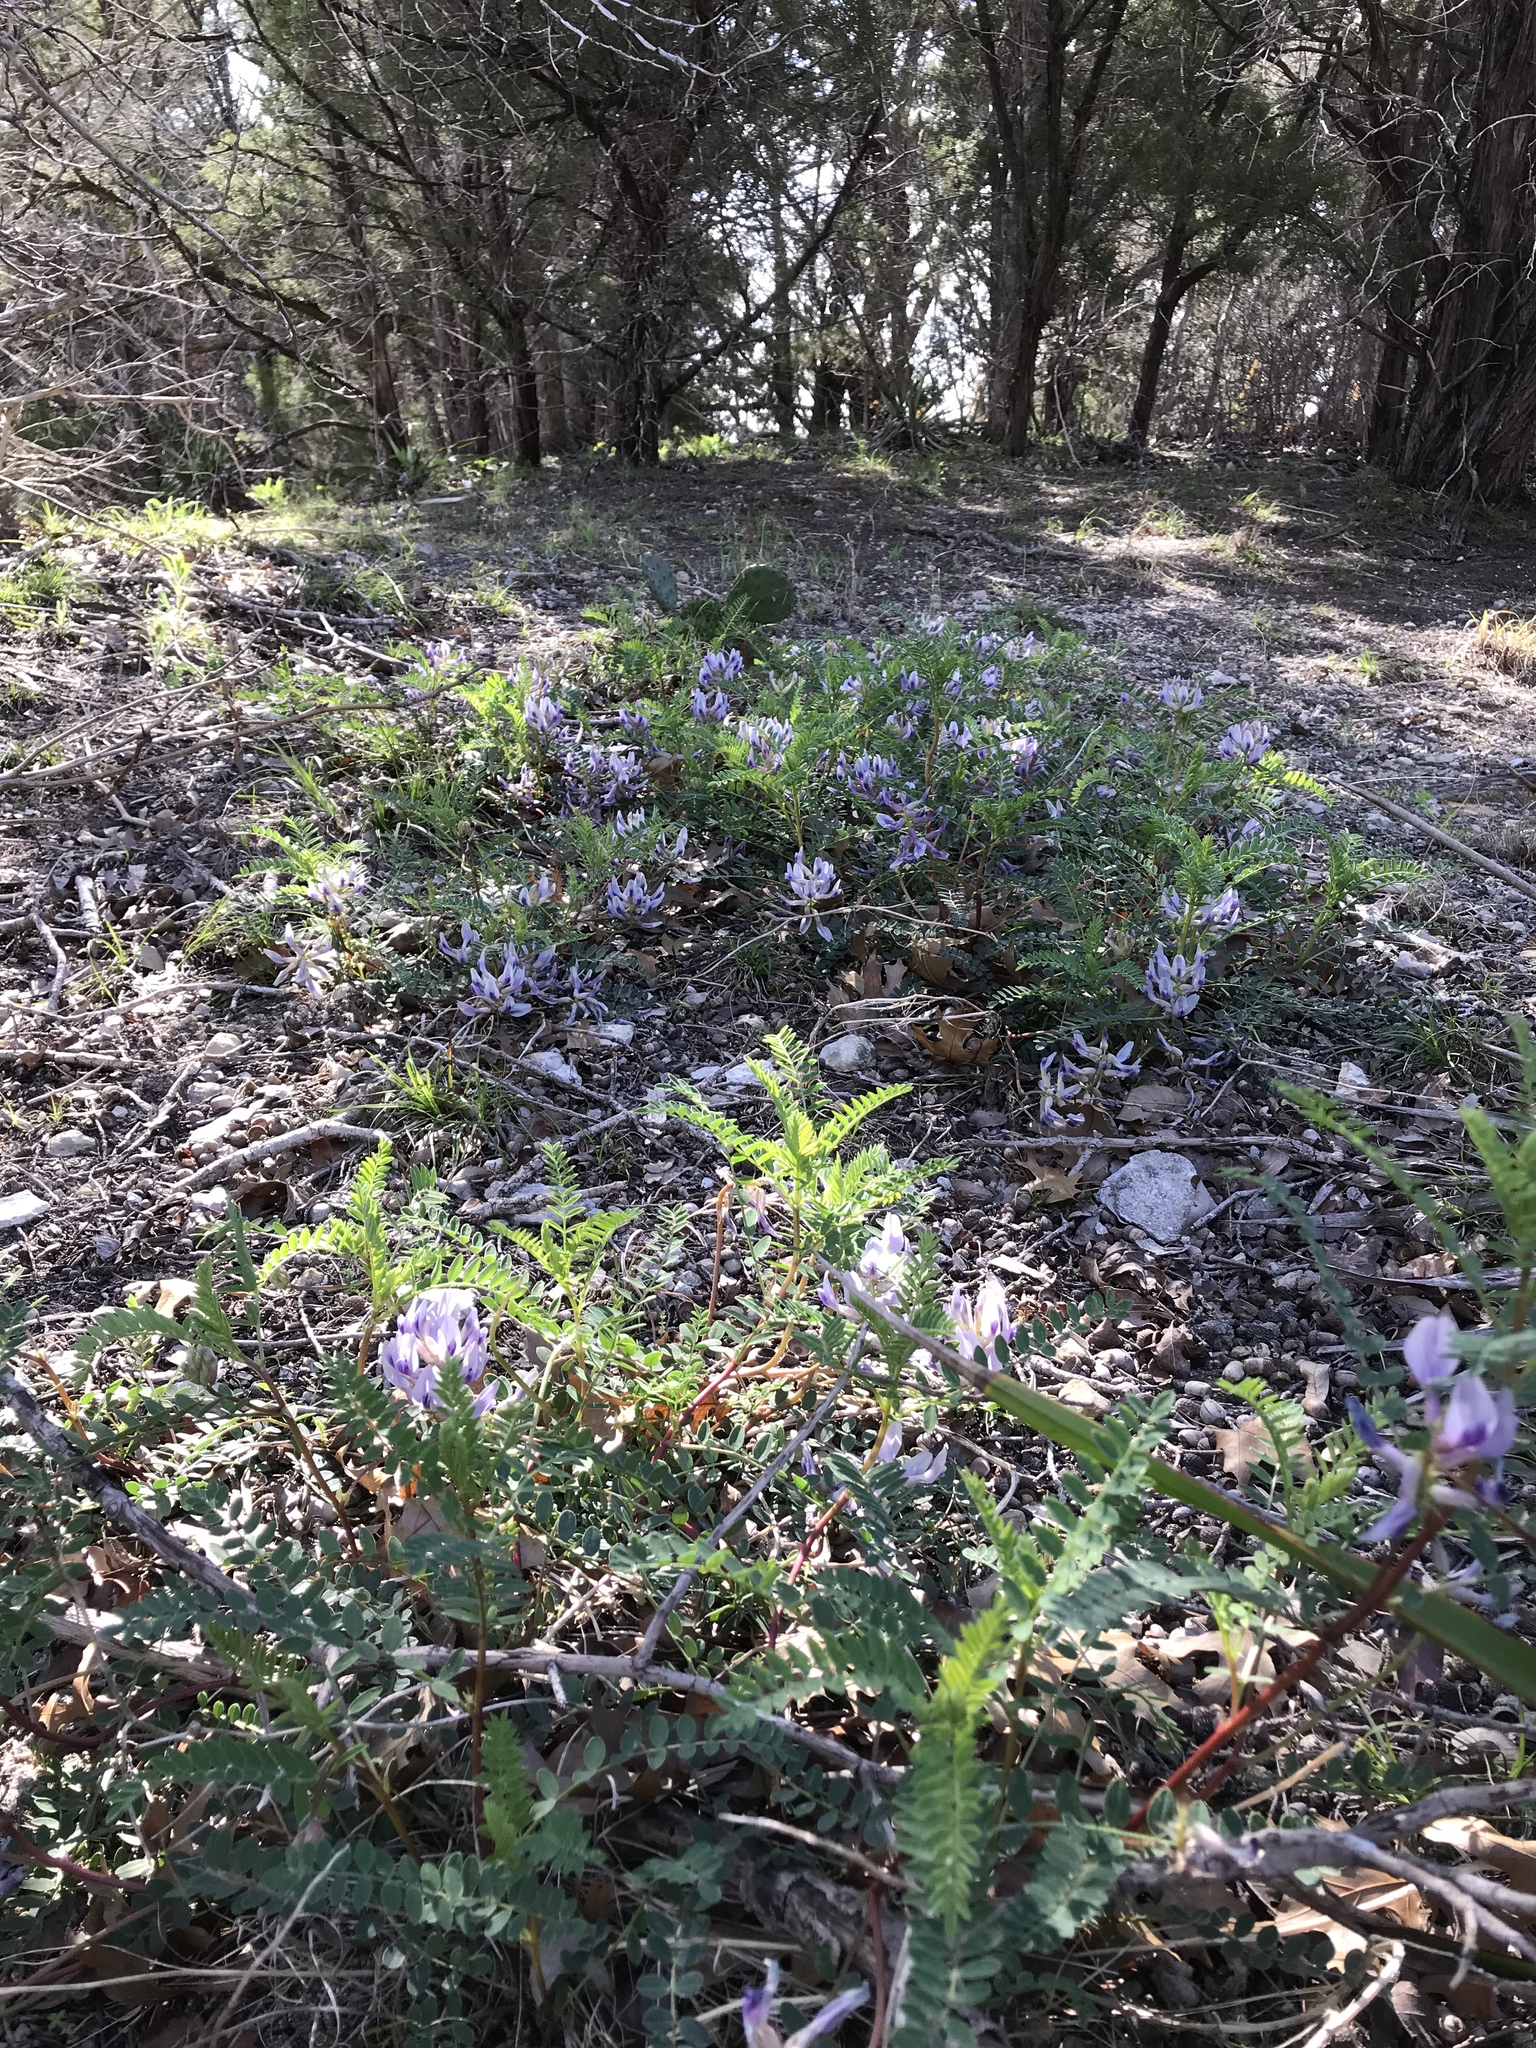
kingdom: Plantae
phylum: Tracheophyta
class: Magnoliopsida
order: Fabales
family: Fabaceae
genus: Astragalus
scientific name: Astragalus crassicarpus
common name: Ground-plum milk-vetch
